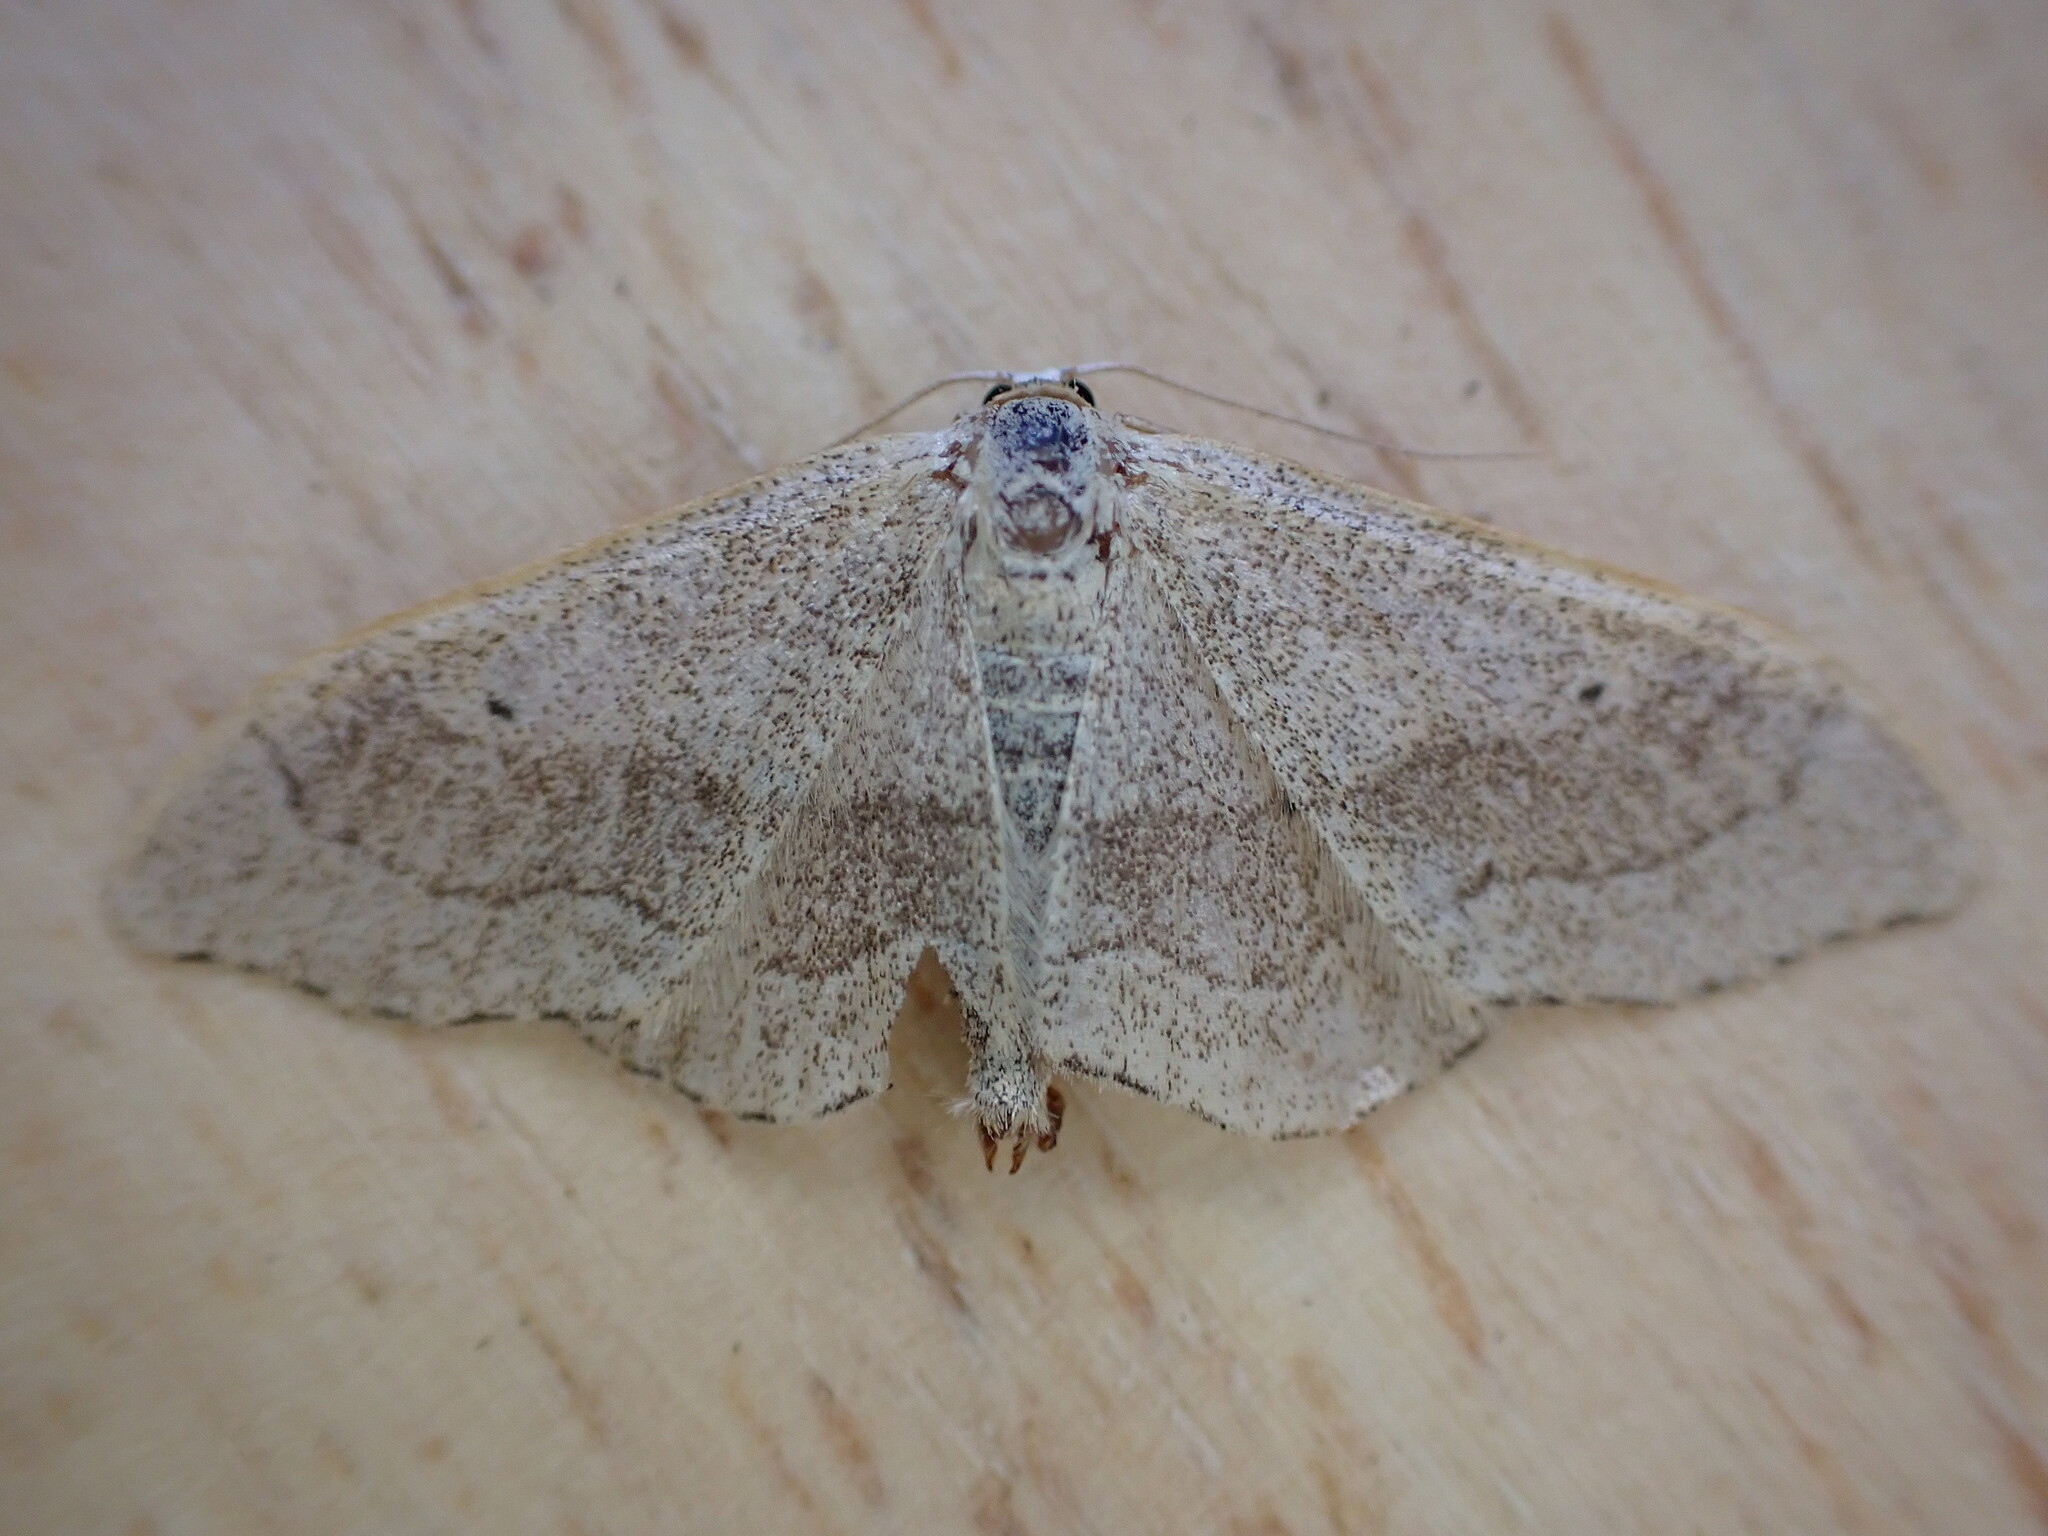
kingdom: Animalia
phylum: Arthropoda
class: Insecta
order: Lepidoptera
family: Geometridae
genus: Idaea
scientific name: Idaea aversata
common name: Riband wave
